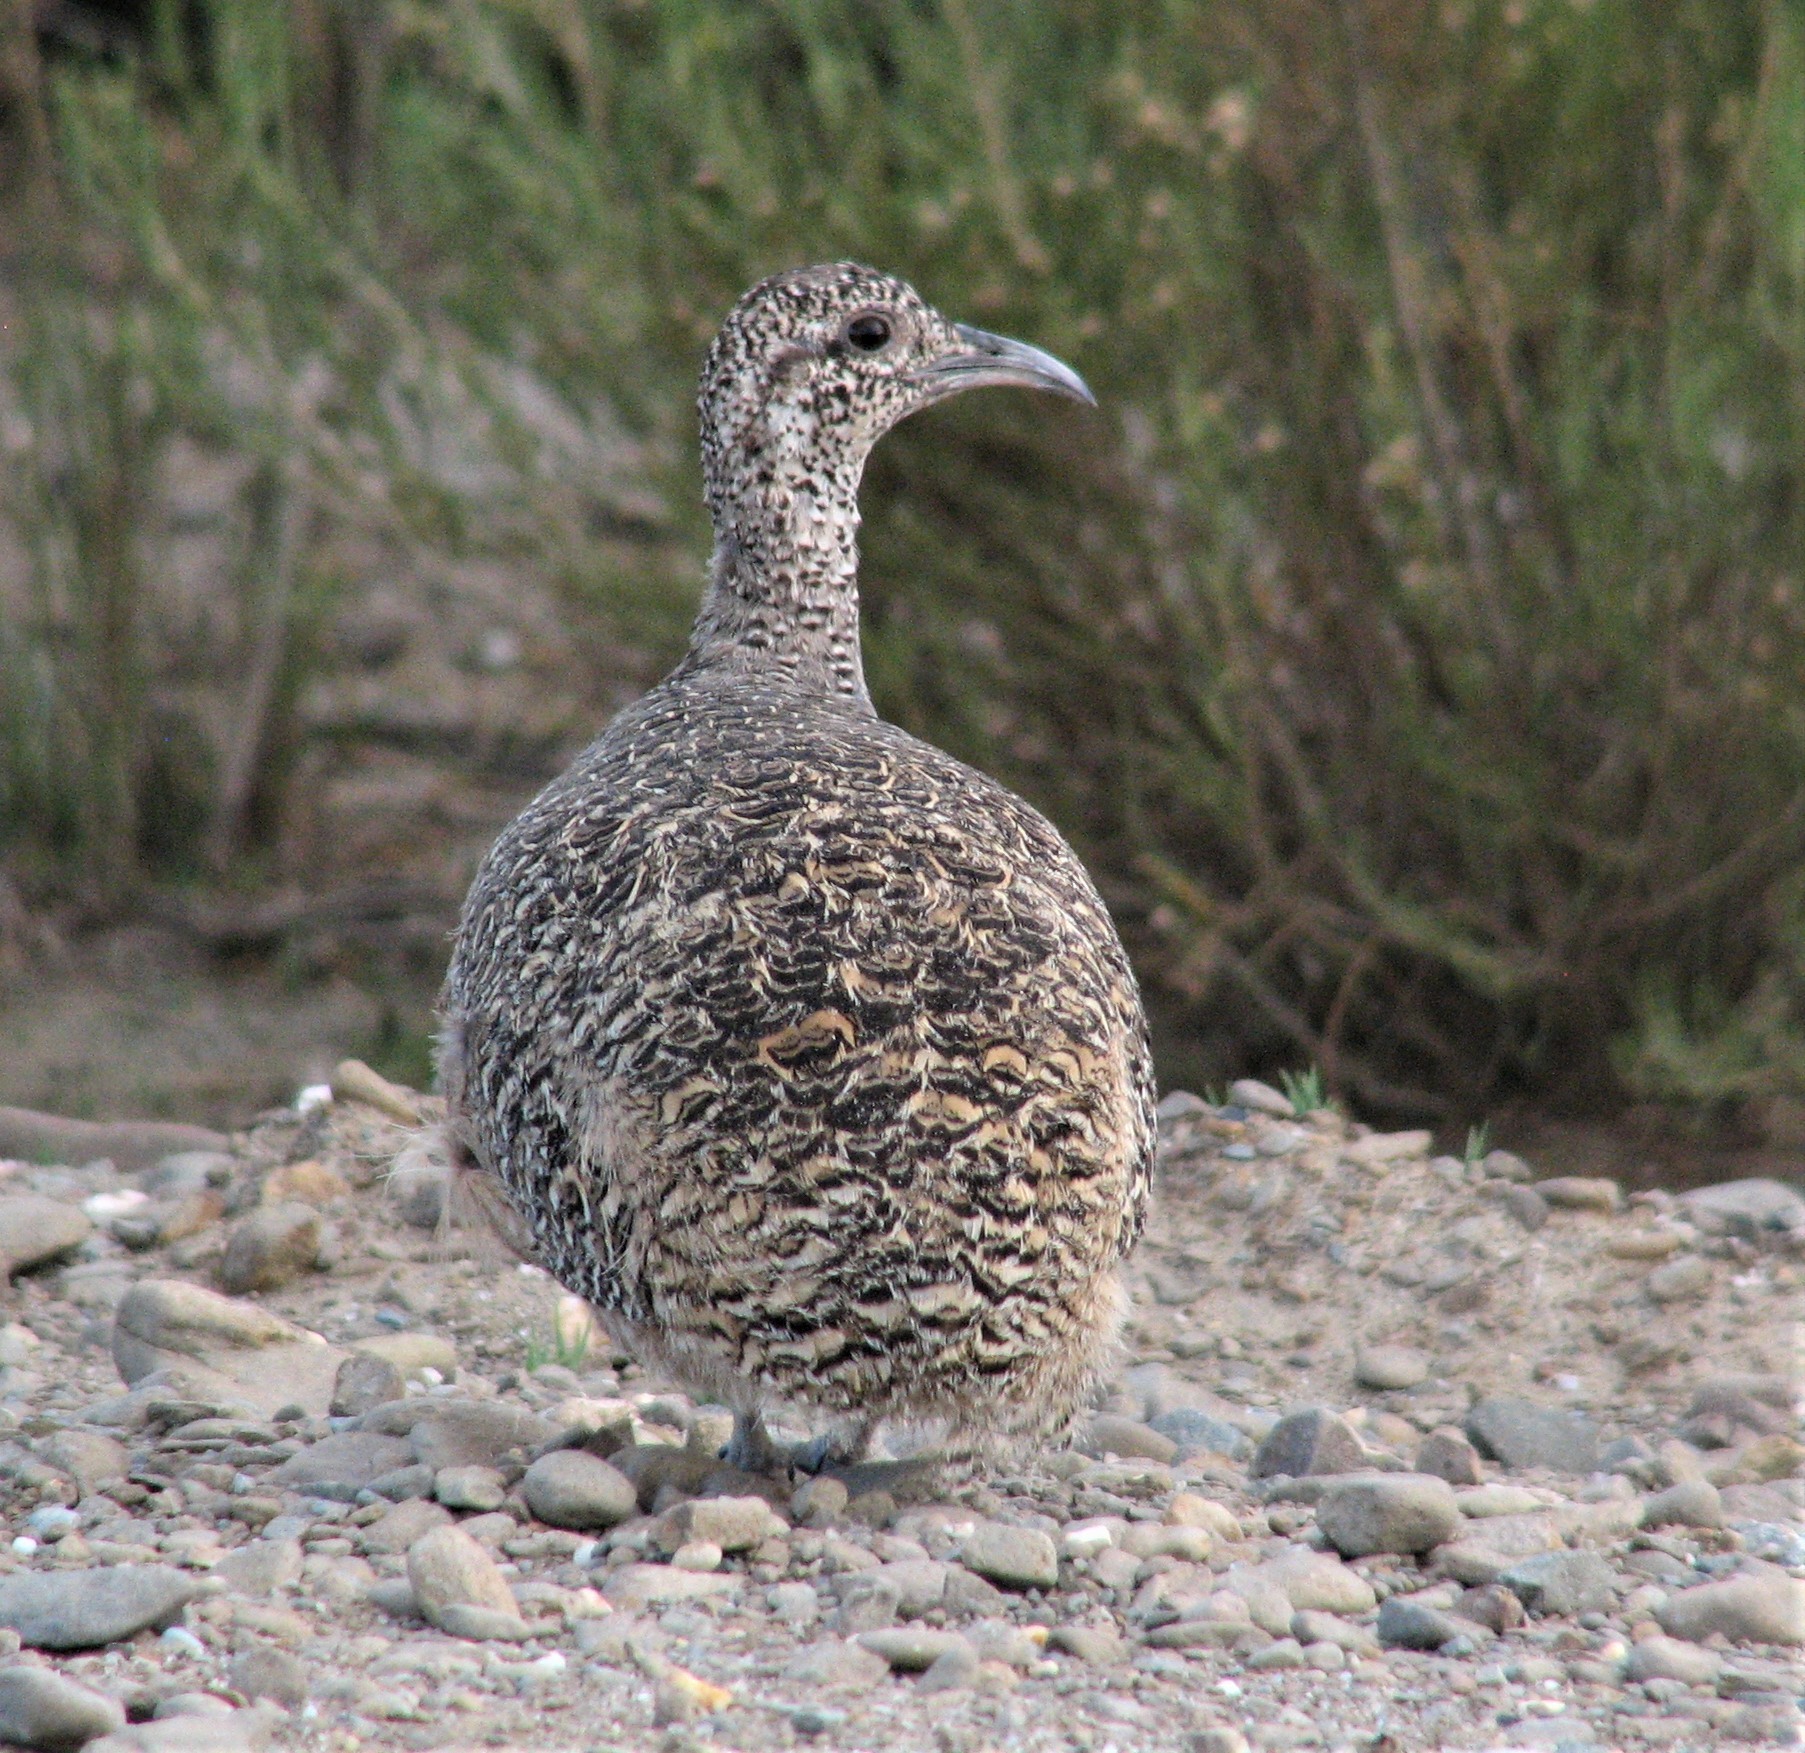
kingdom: Animalia
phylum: Chordata
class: Aves
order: Tinamiformes
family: Tinamidae
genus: Nothoprocta
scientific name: Nothoprocta ornata
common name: Ornate tinamou
